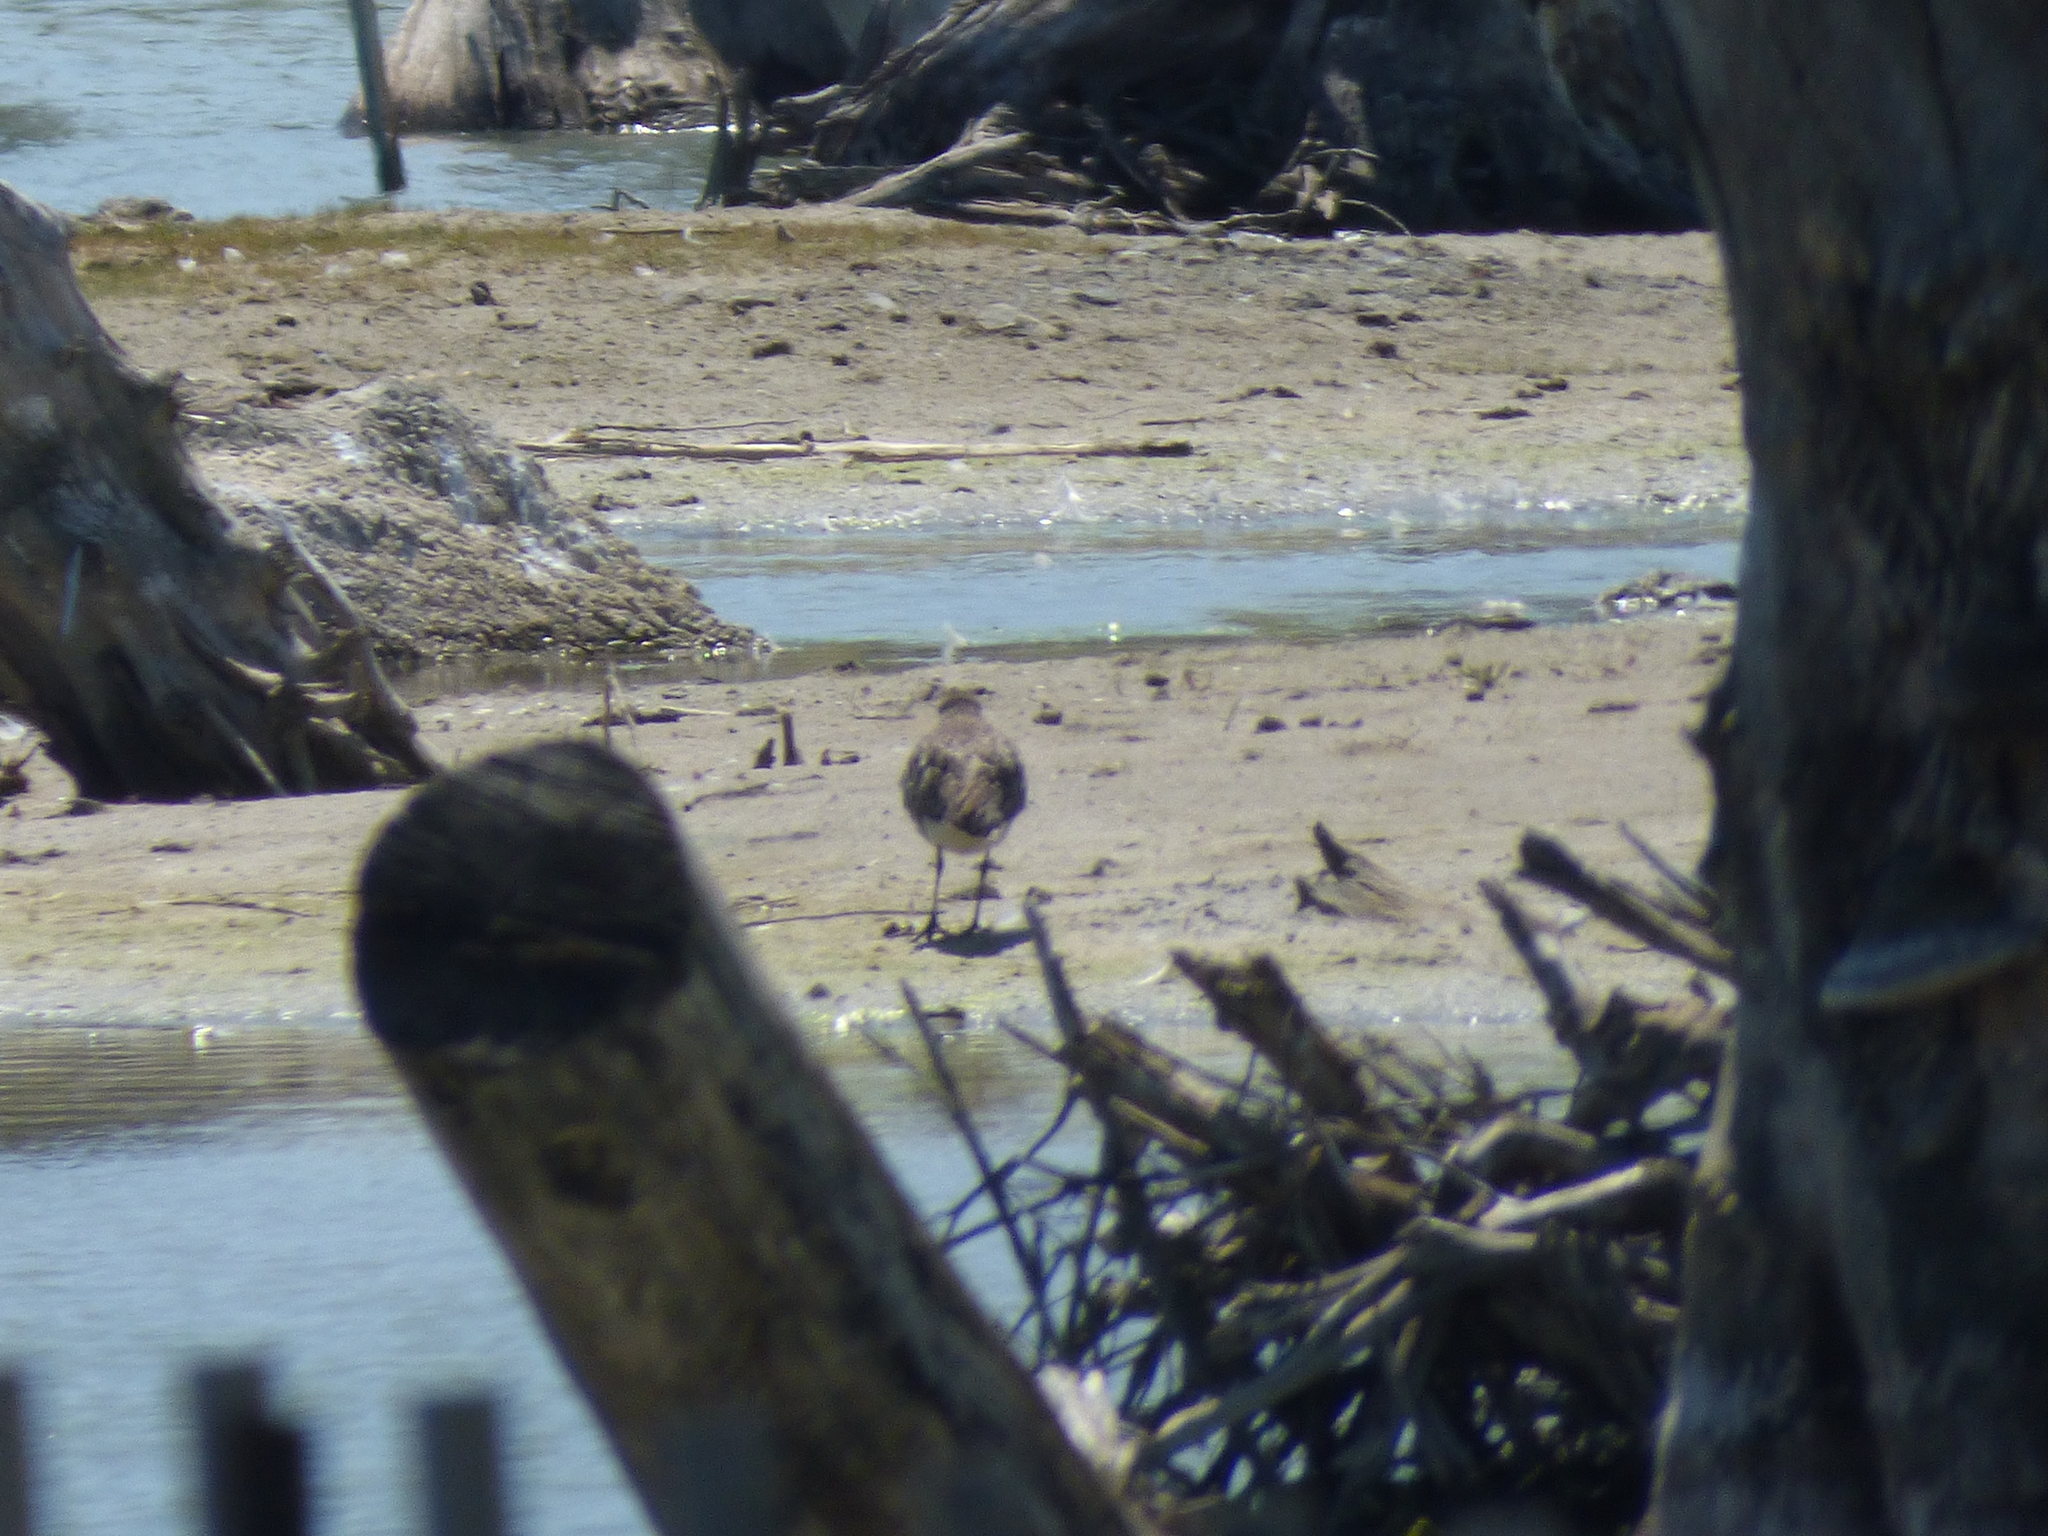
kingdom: Animalia
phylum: Chordata
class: Aves
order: Charadriiformes
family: Charadriidae
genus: Pluvialis
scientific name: Pluvialis squatarola
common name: Grey plover
